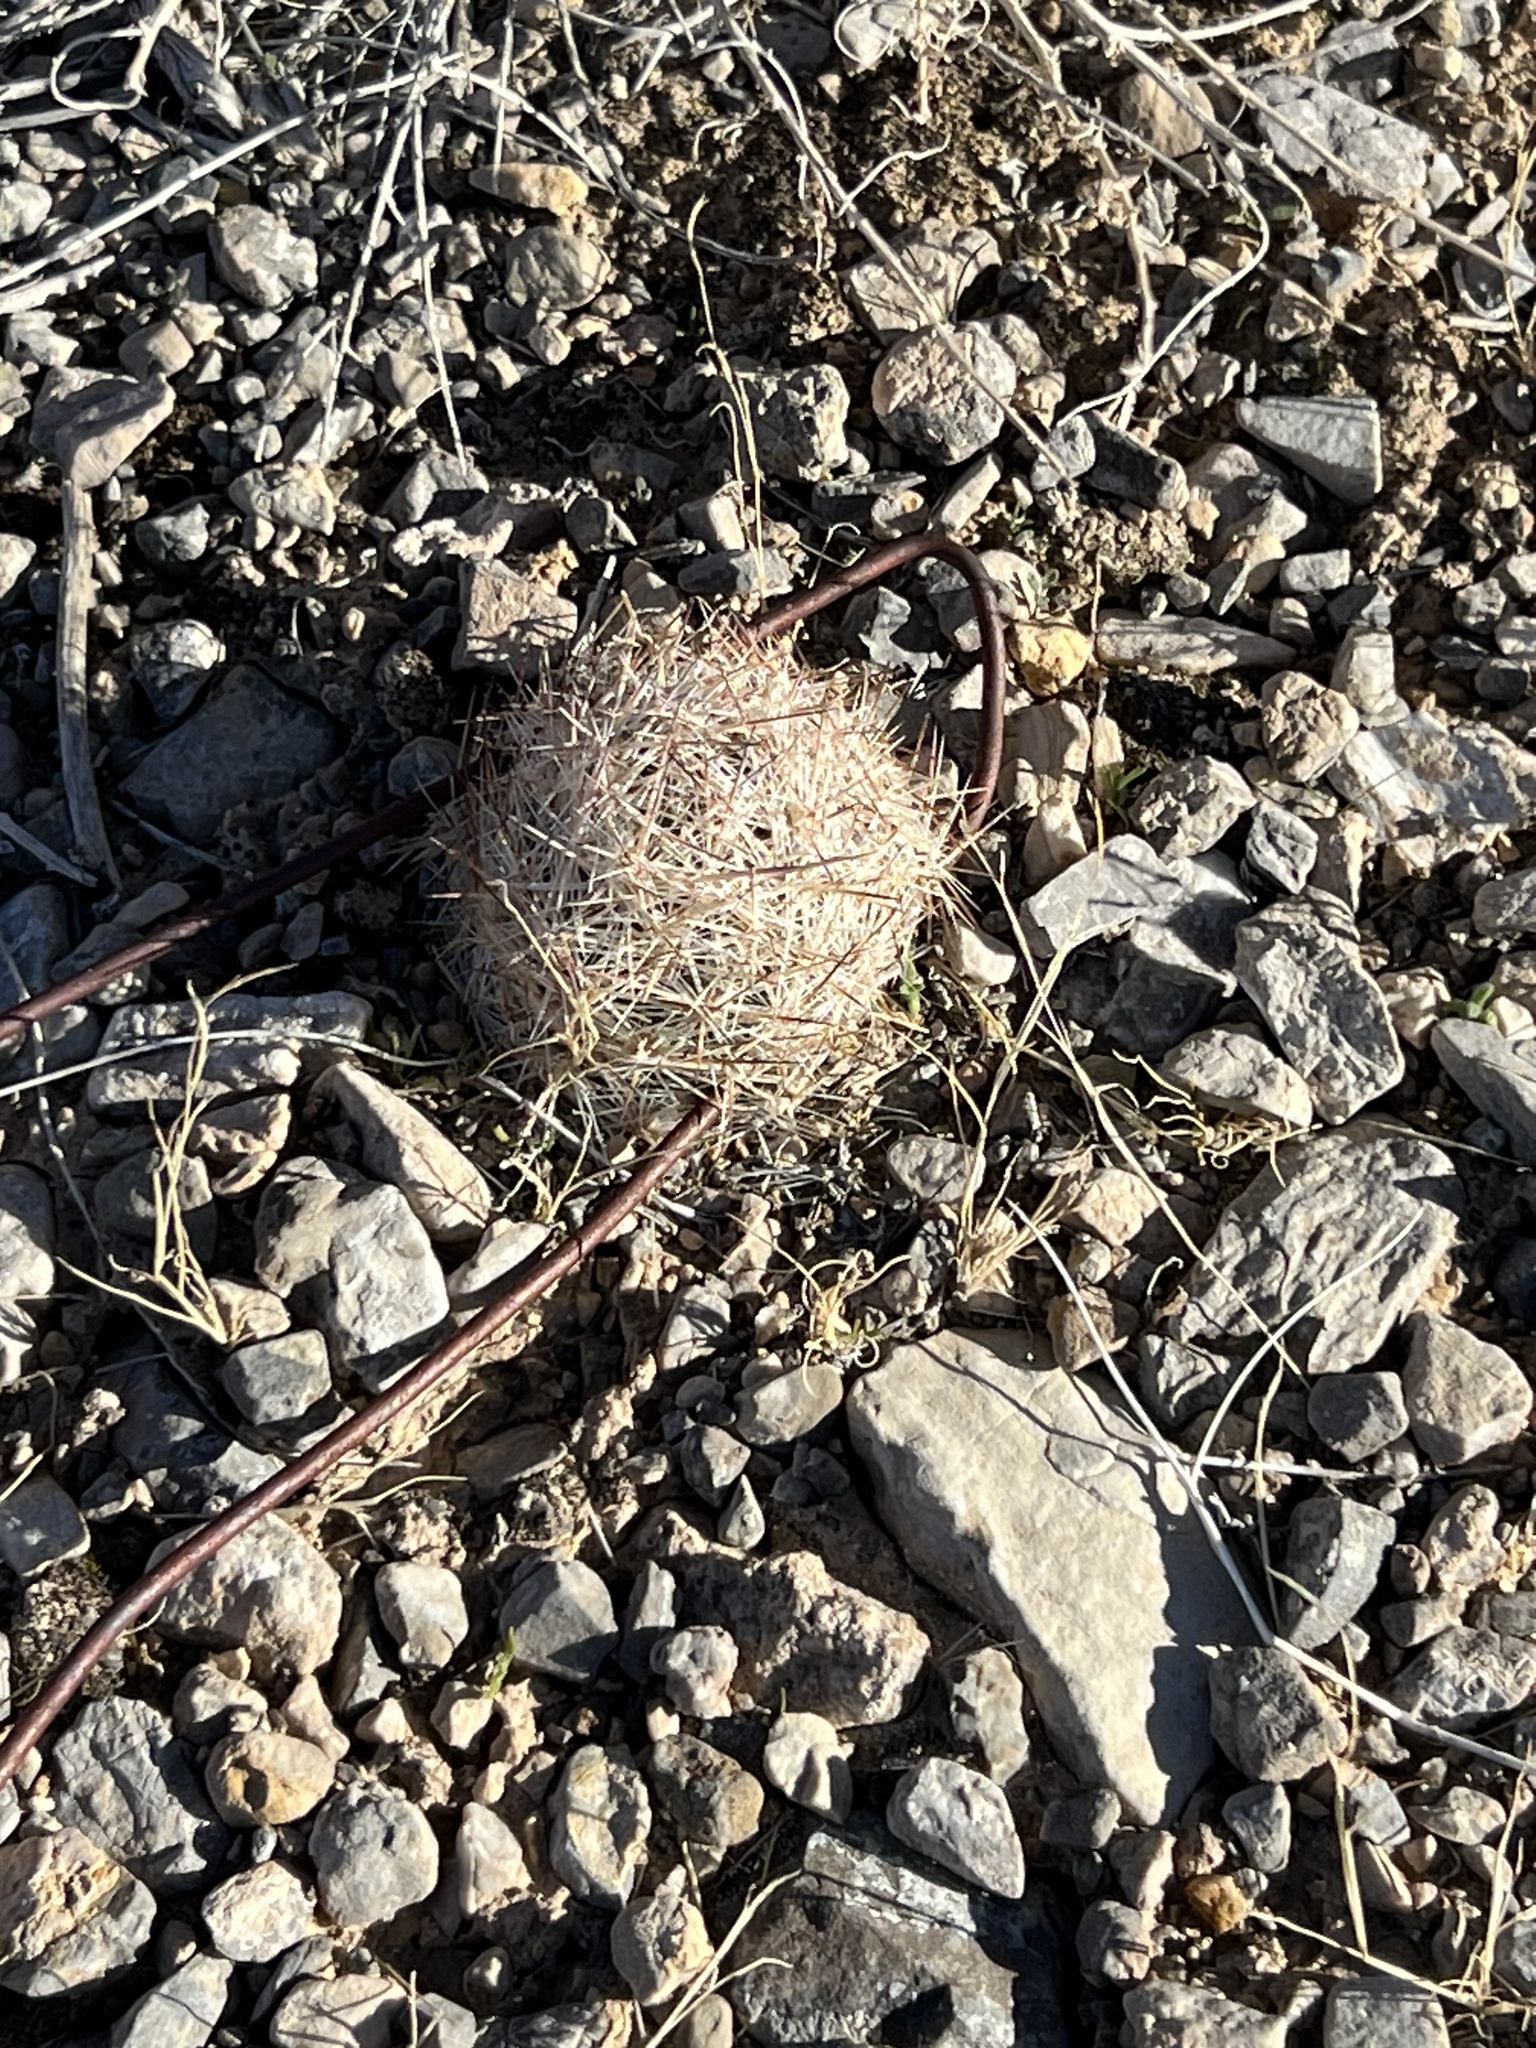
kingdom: Plantae
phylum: Tracheophyta
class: Magnoliopsida
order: Caryophyllales
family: Cactaceae
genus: Pelecyphora
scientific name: Pelecyphora dasyacantha
